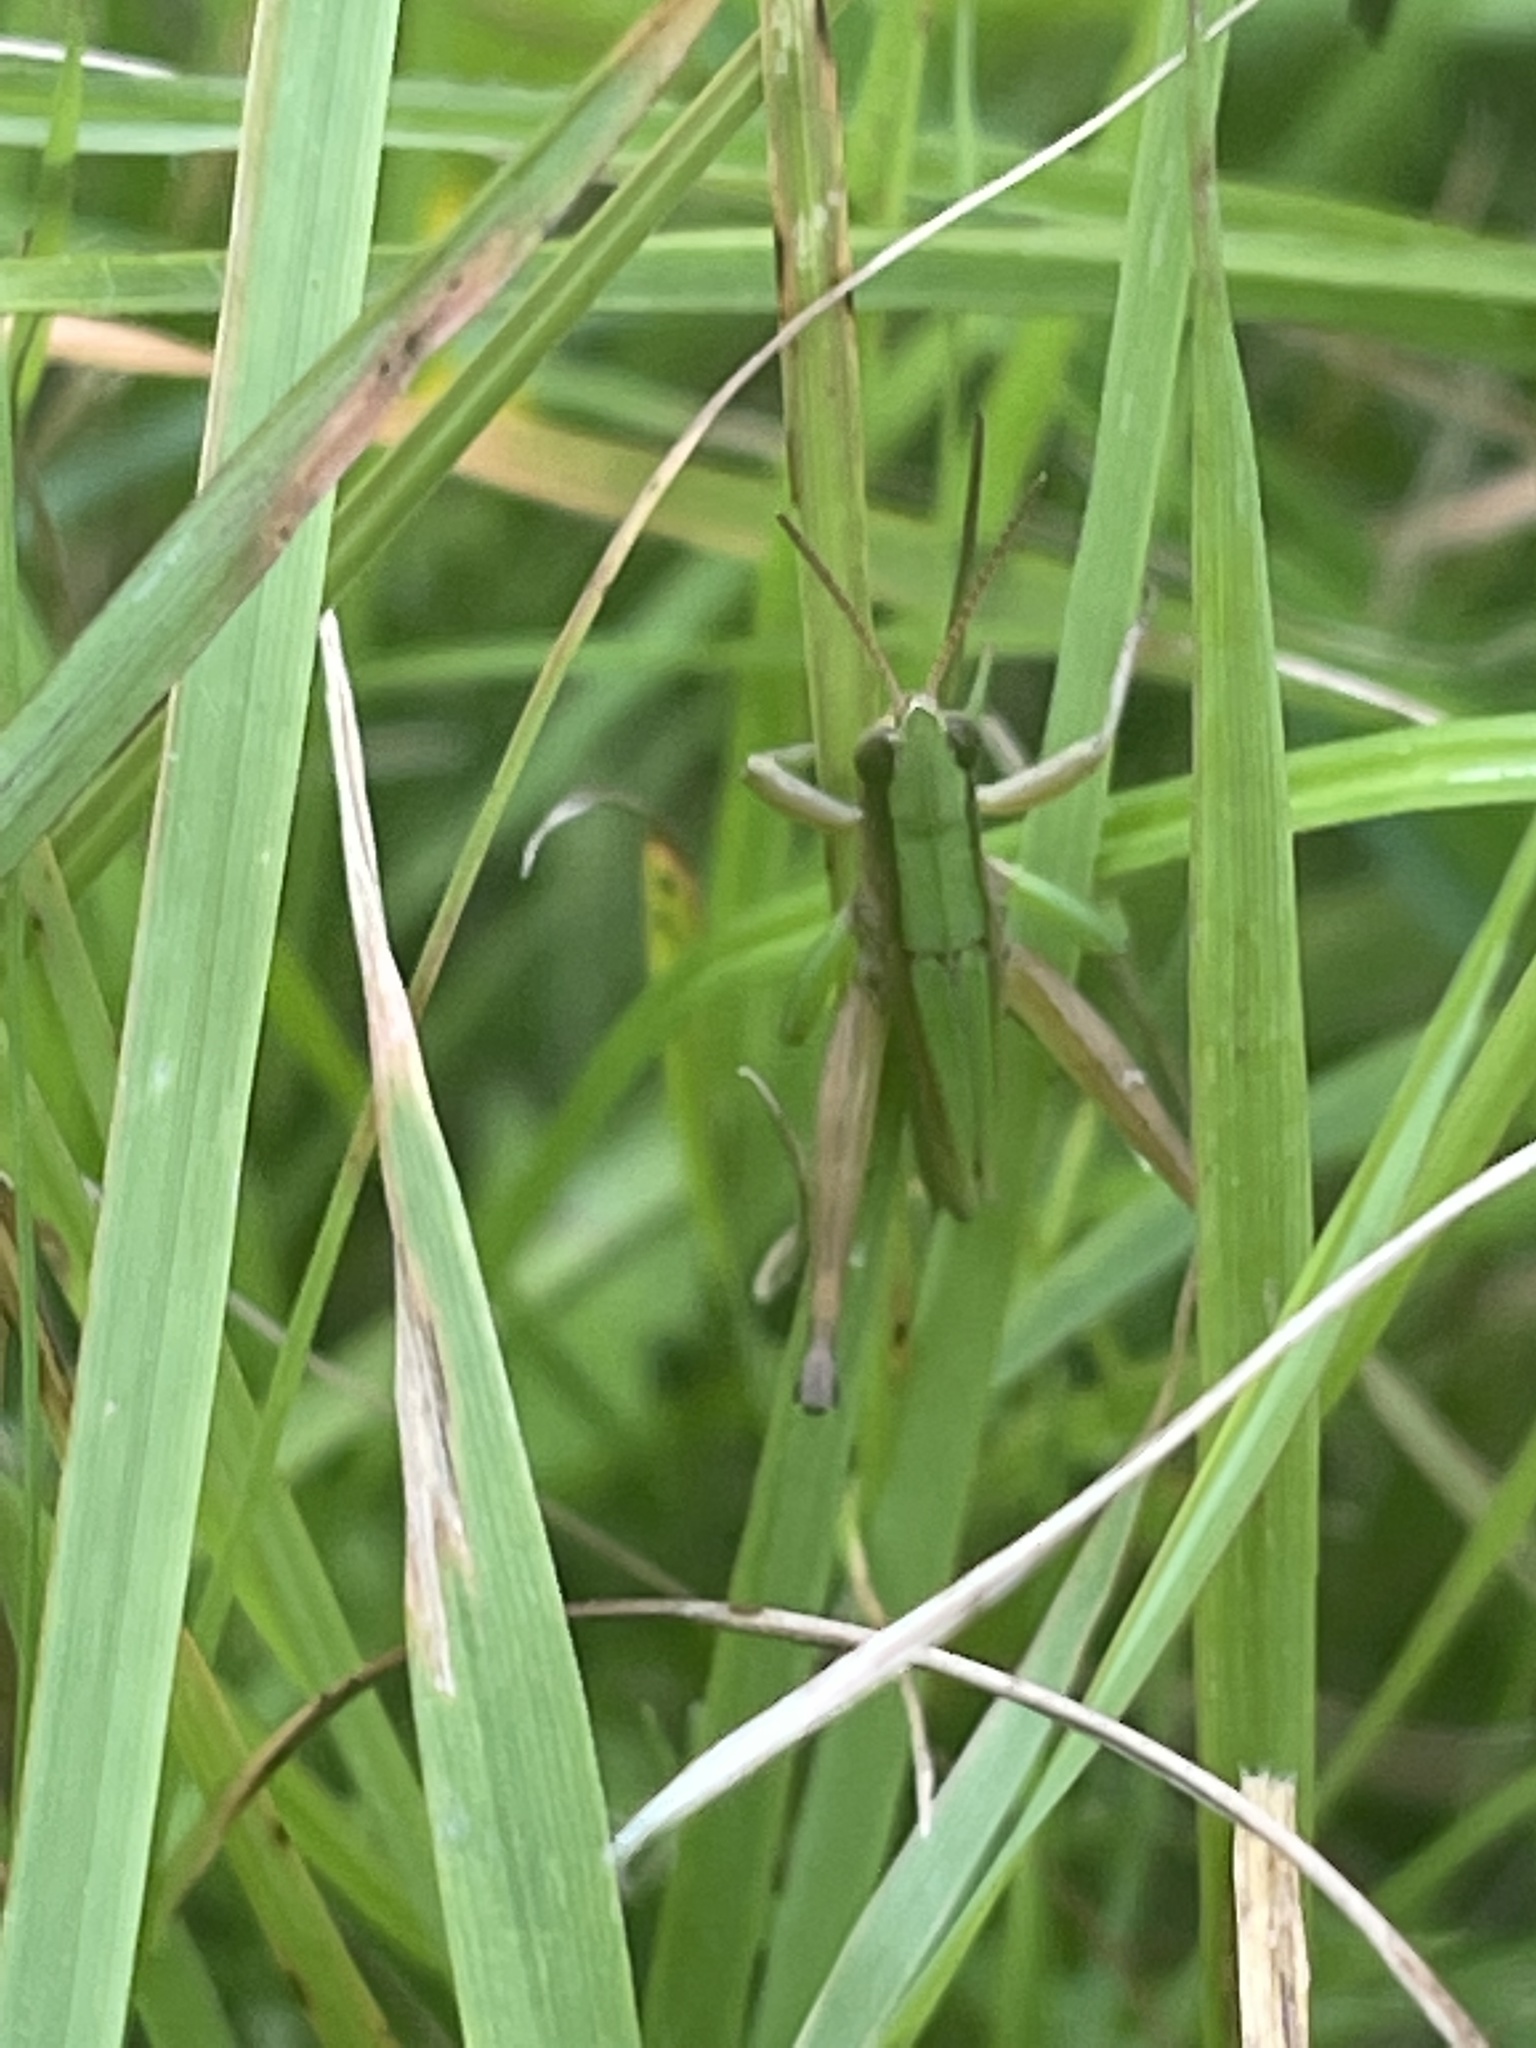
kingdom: Animalia
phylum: Arthropoda
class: Insecta
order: Orthoptera
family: Acrididae
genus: Dichromorpha
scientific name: Dichromorpha viridis
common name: Short-winged green grasshopper
